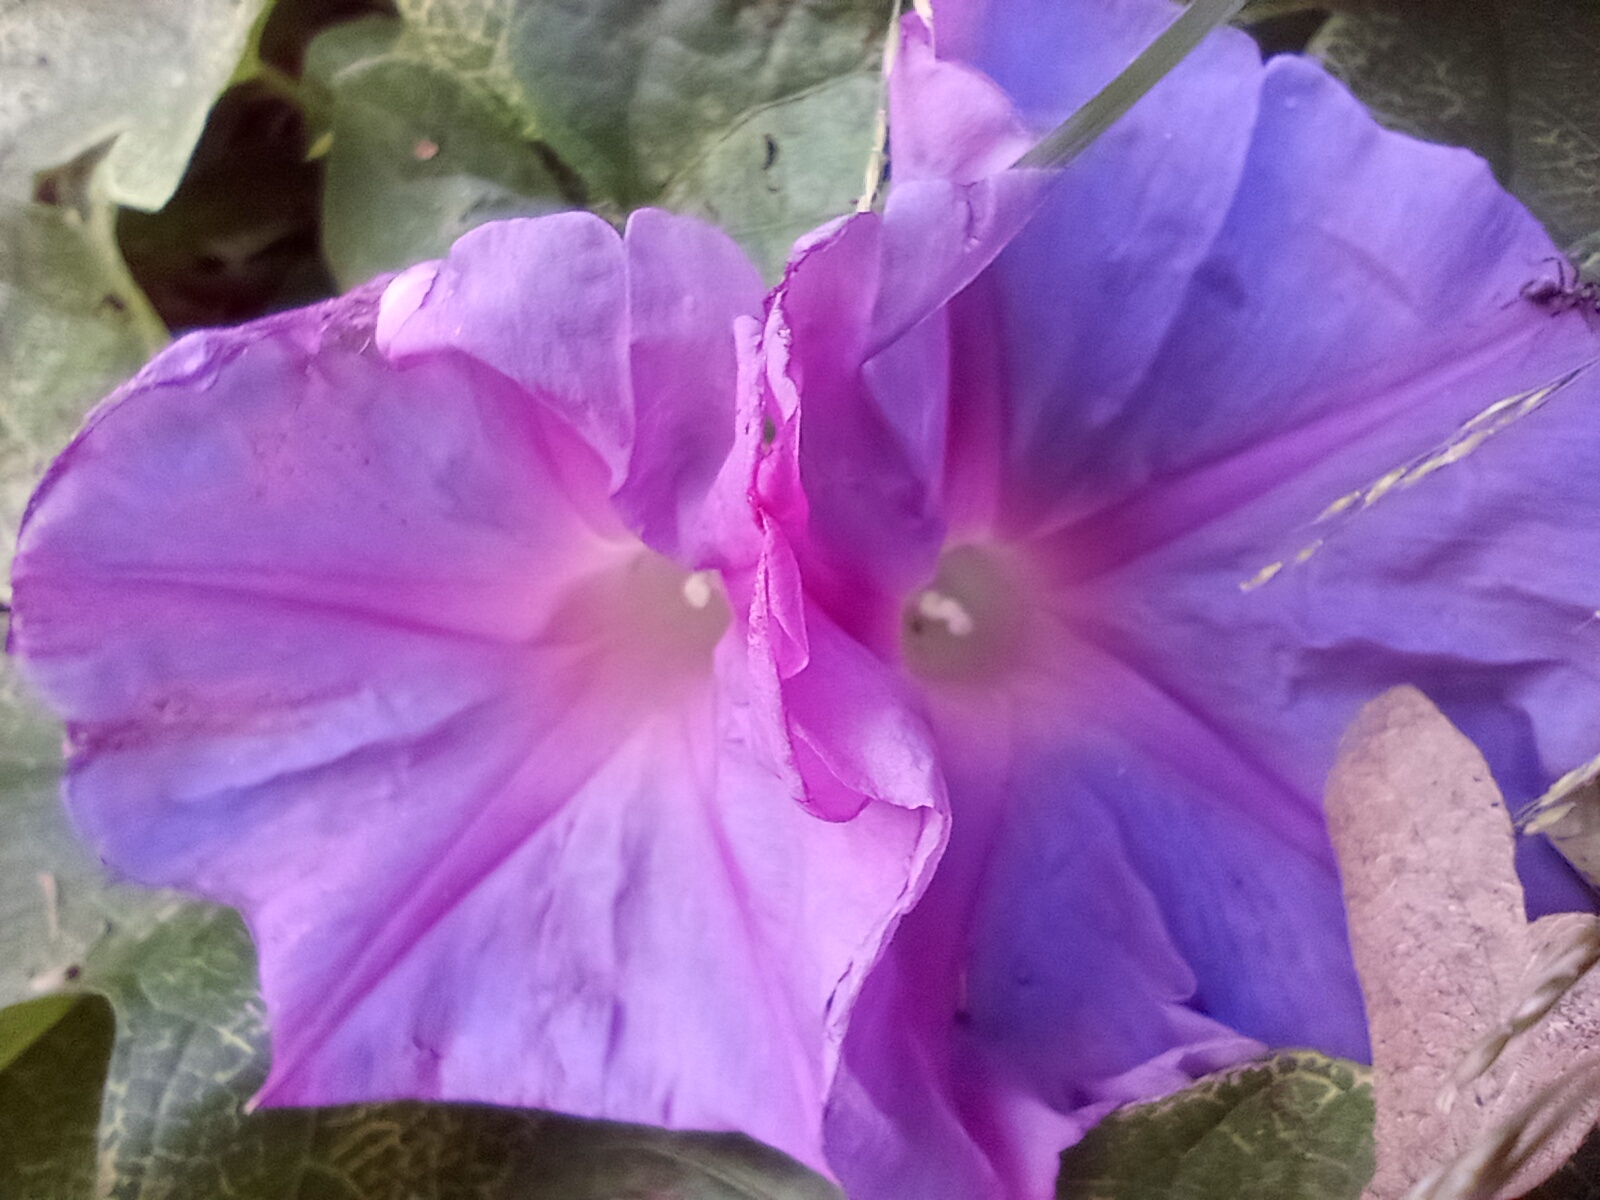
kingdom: Plantae
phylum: Tracheophyta
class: Magnoliopsida
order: Solanales
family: Convolvulaceae
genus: Ipomoea
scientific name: Ipomoea indica
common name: Blue dawnflower
